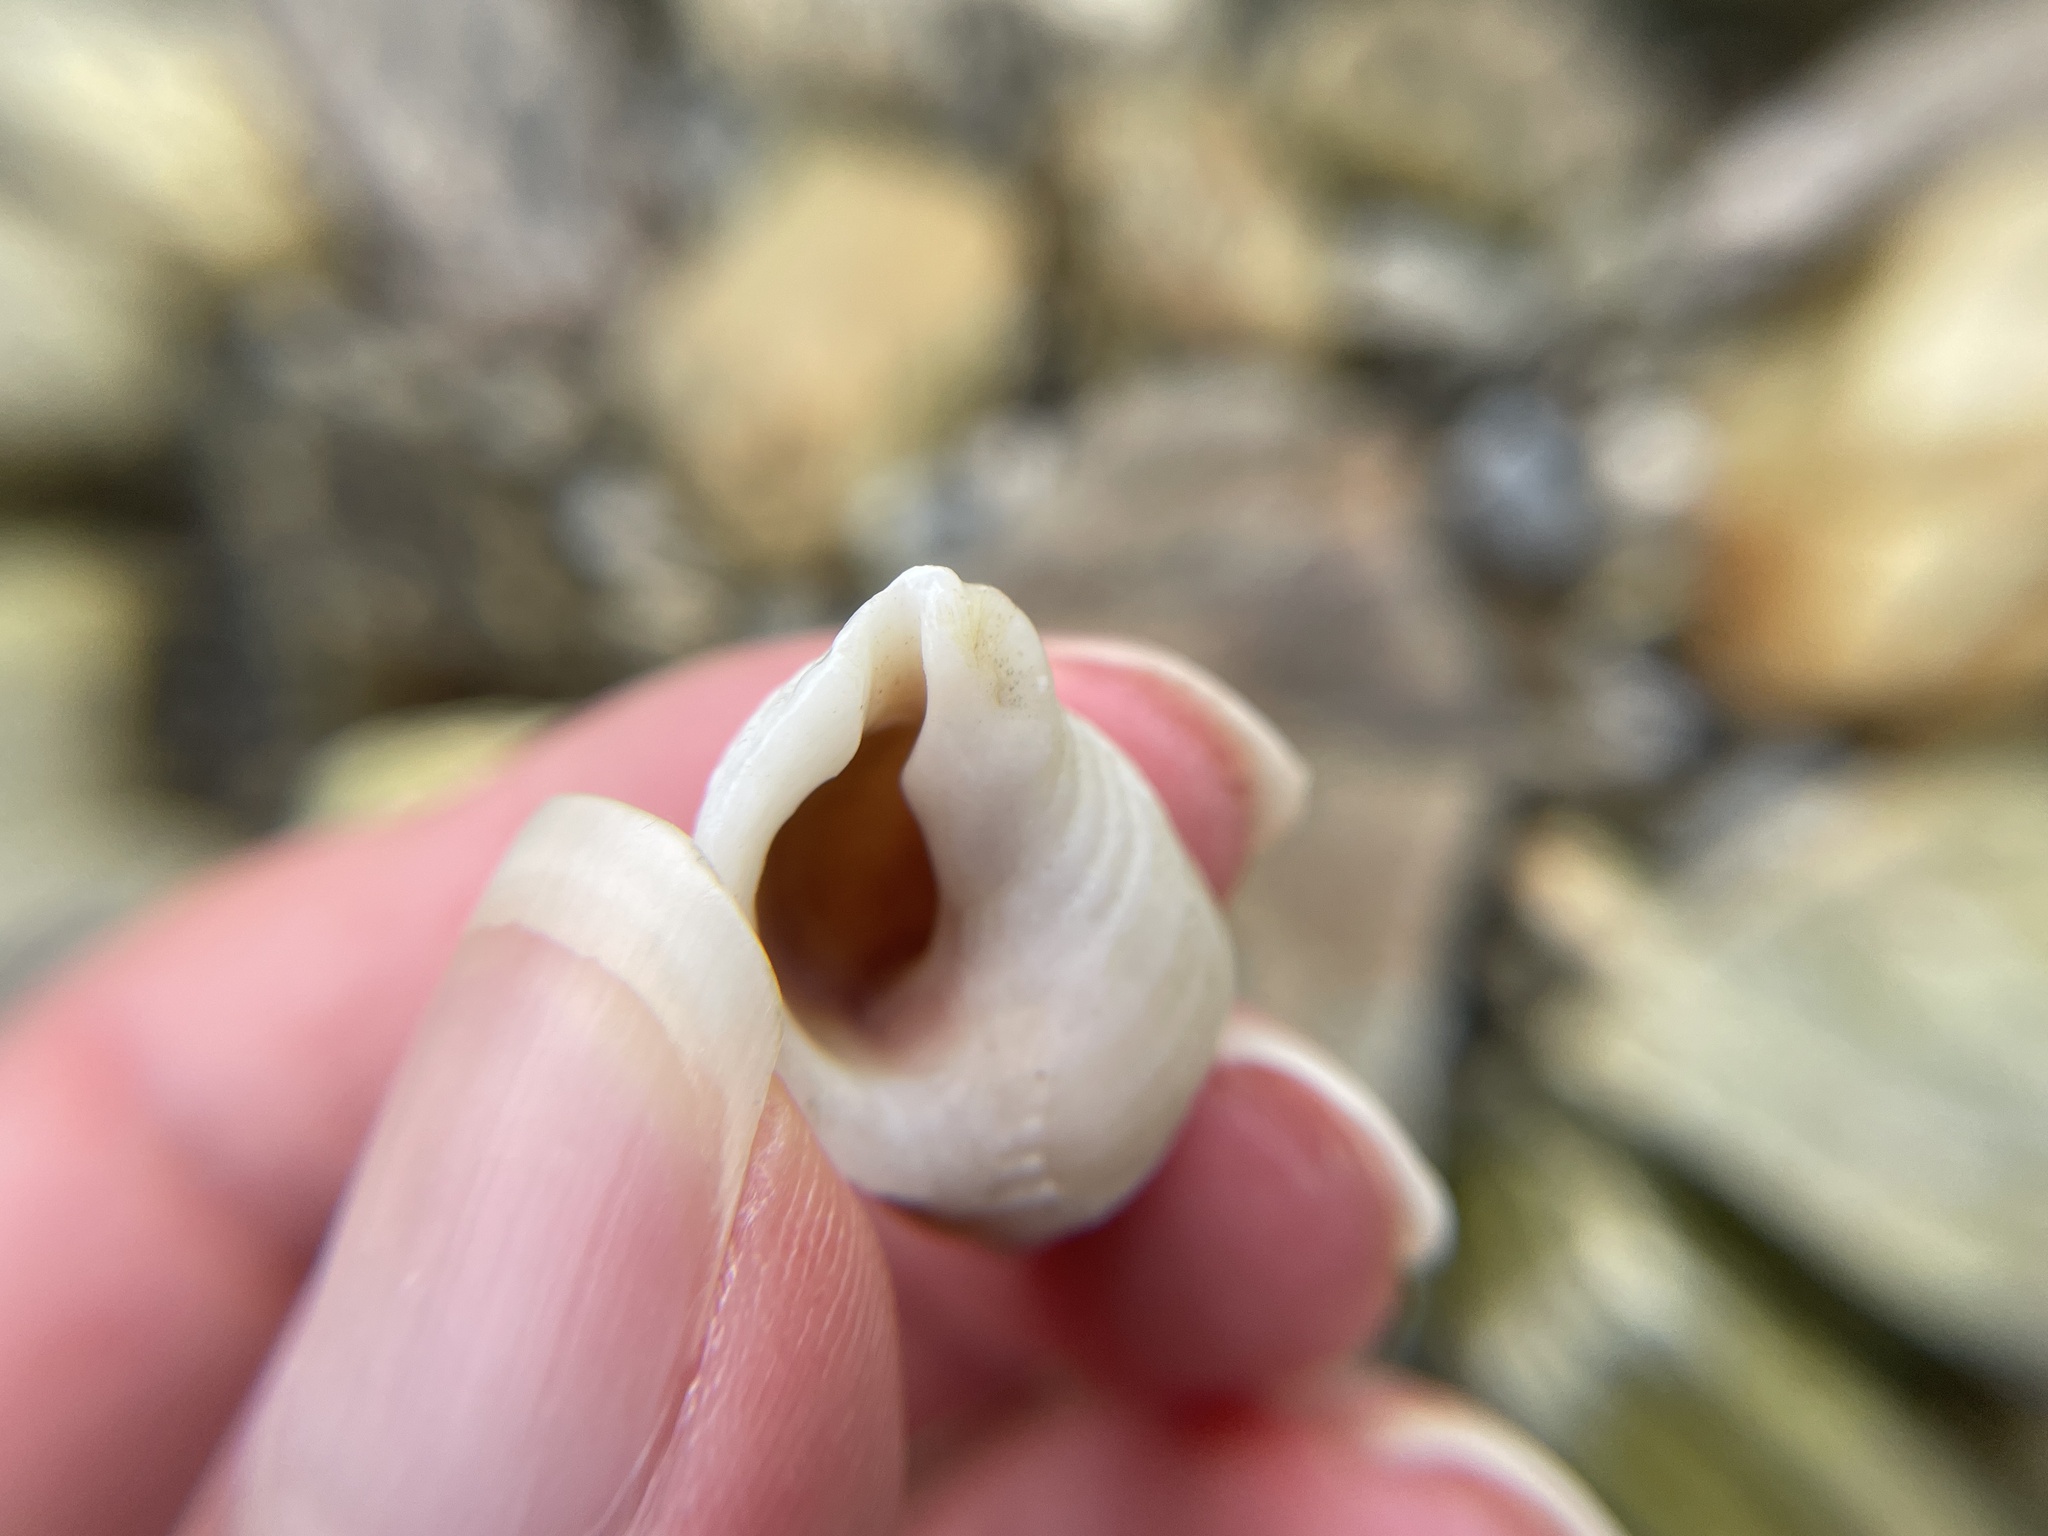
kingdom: Animalia
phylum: Mollusca
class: Gastropoda
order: Neogastropoda
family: Muricidae
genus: Nucella
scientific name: Nucella lapillus
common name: Dog whelk
